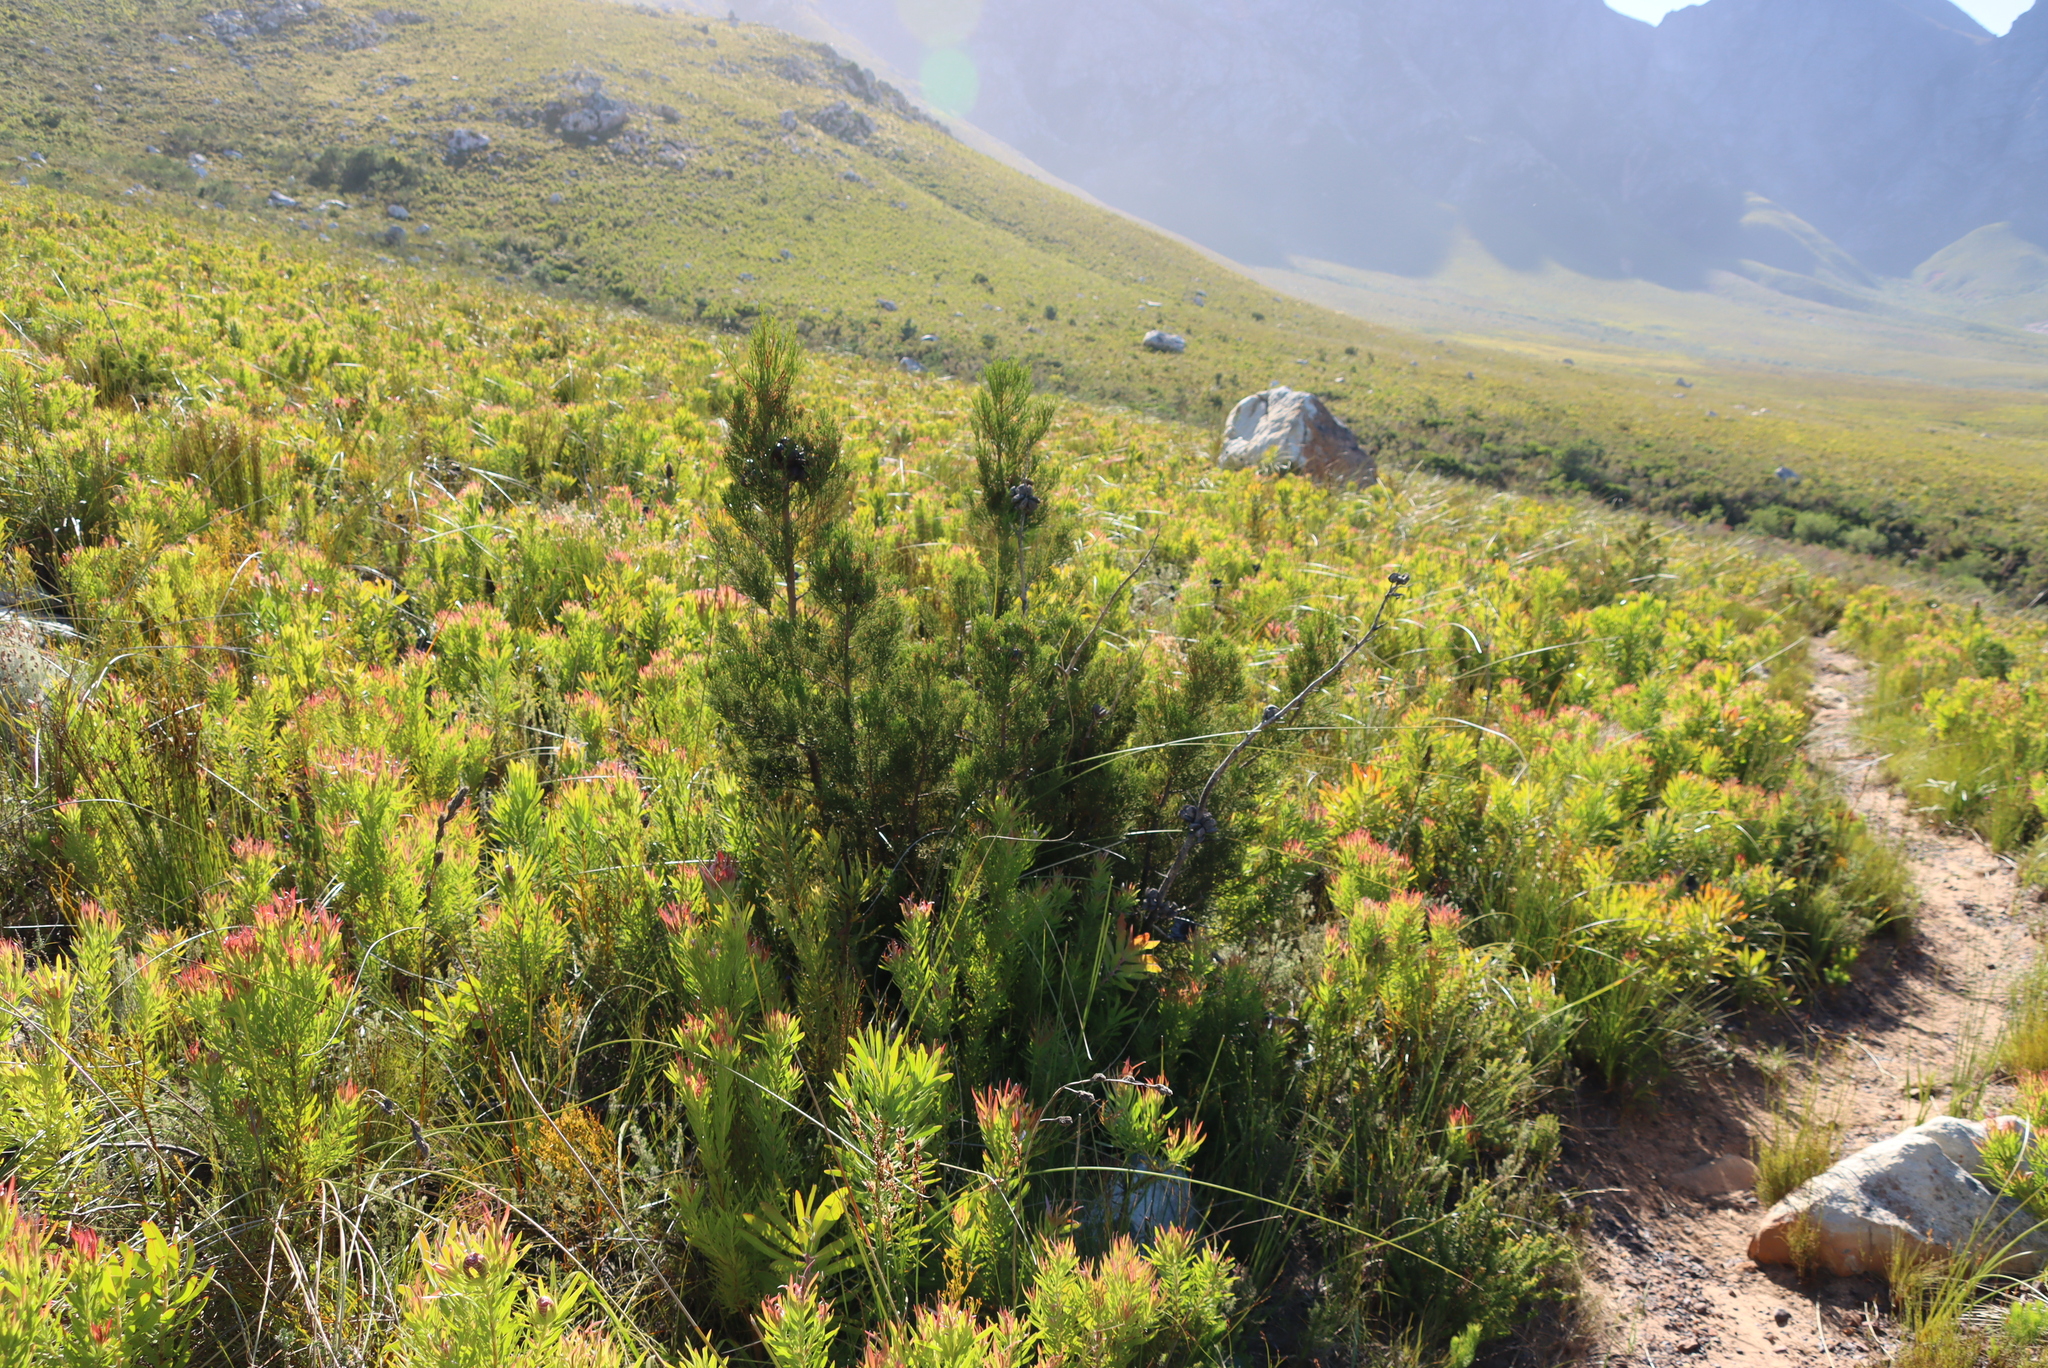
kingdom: Plantae
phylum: Tracheophyta
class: Pinopsida
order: Pinales
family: Cupressaceae
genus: Widdringtonia
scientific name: Widdringtonia nodiflora
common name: Cape cypress
